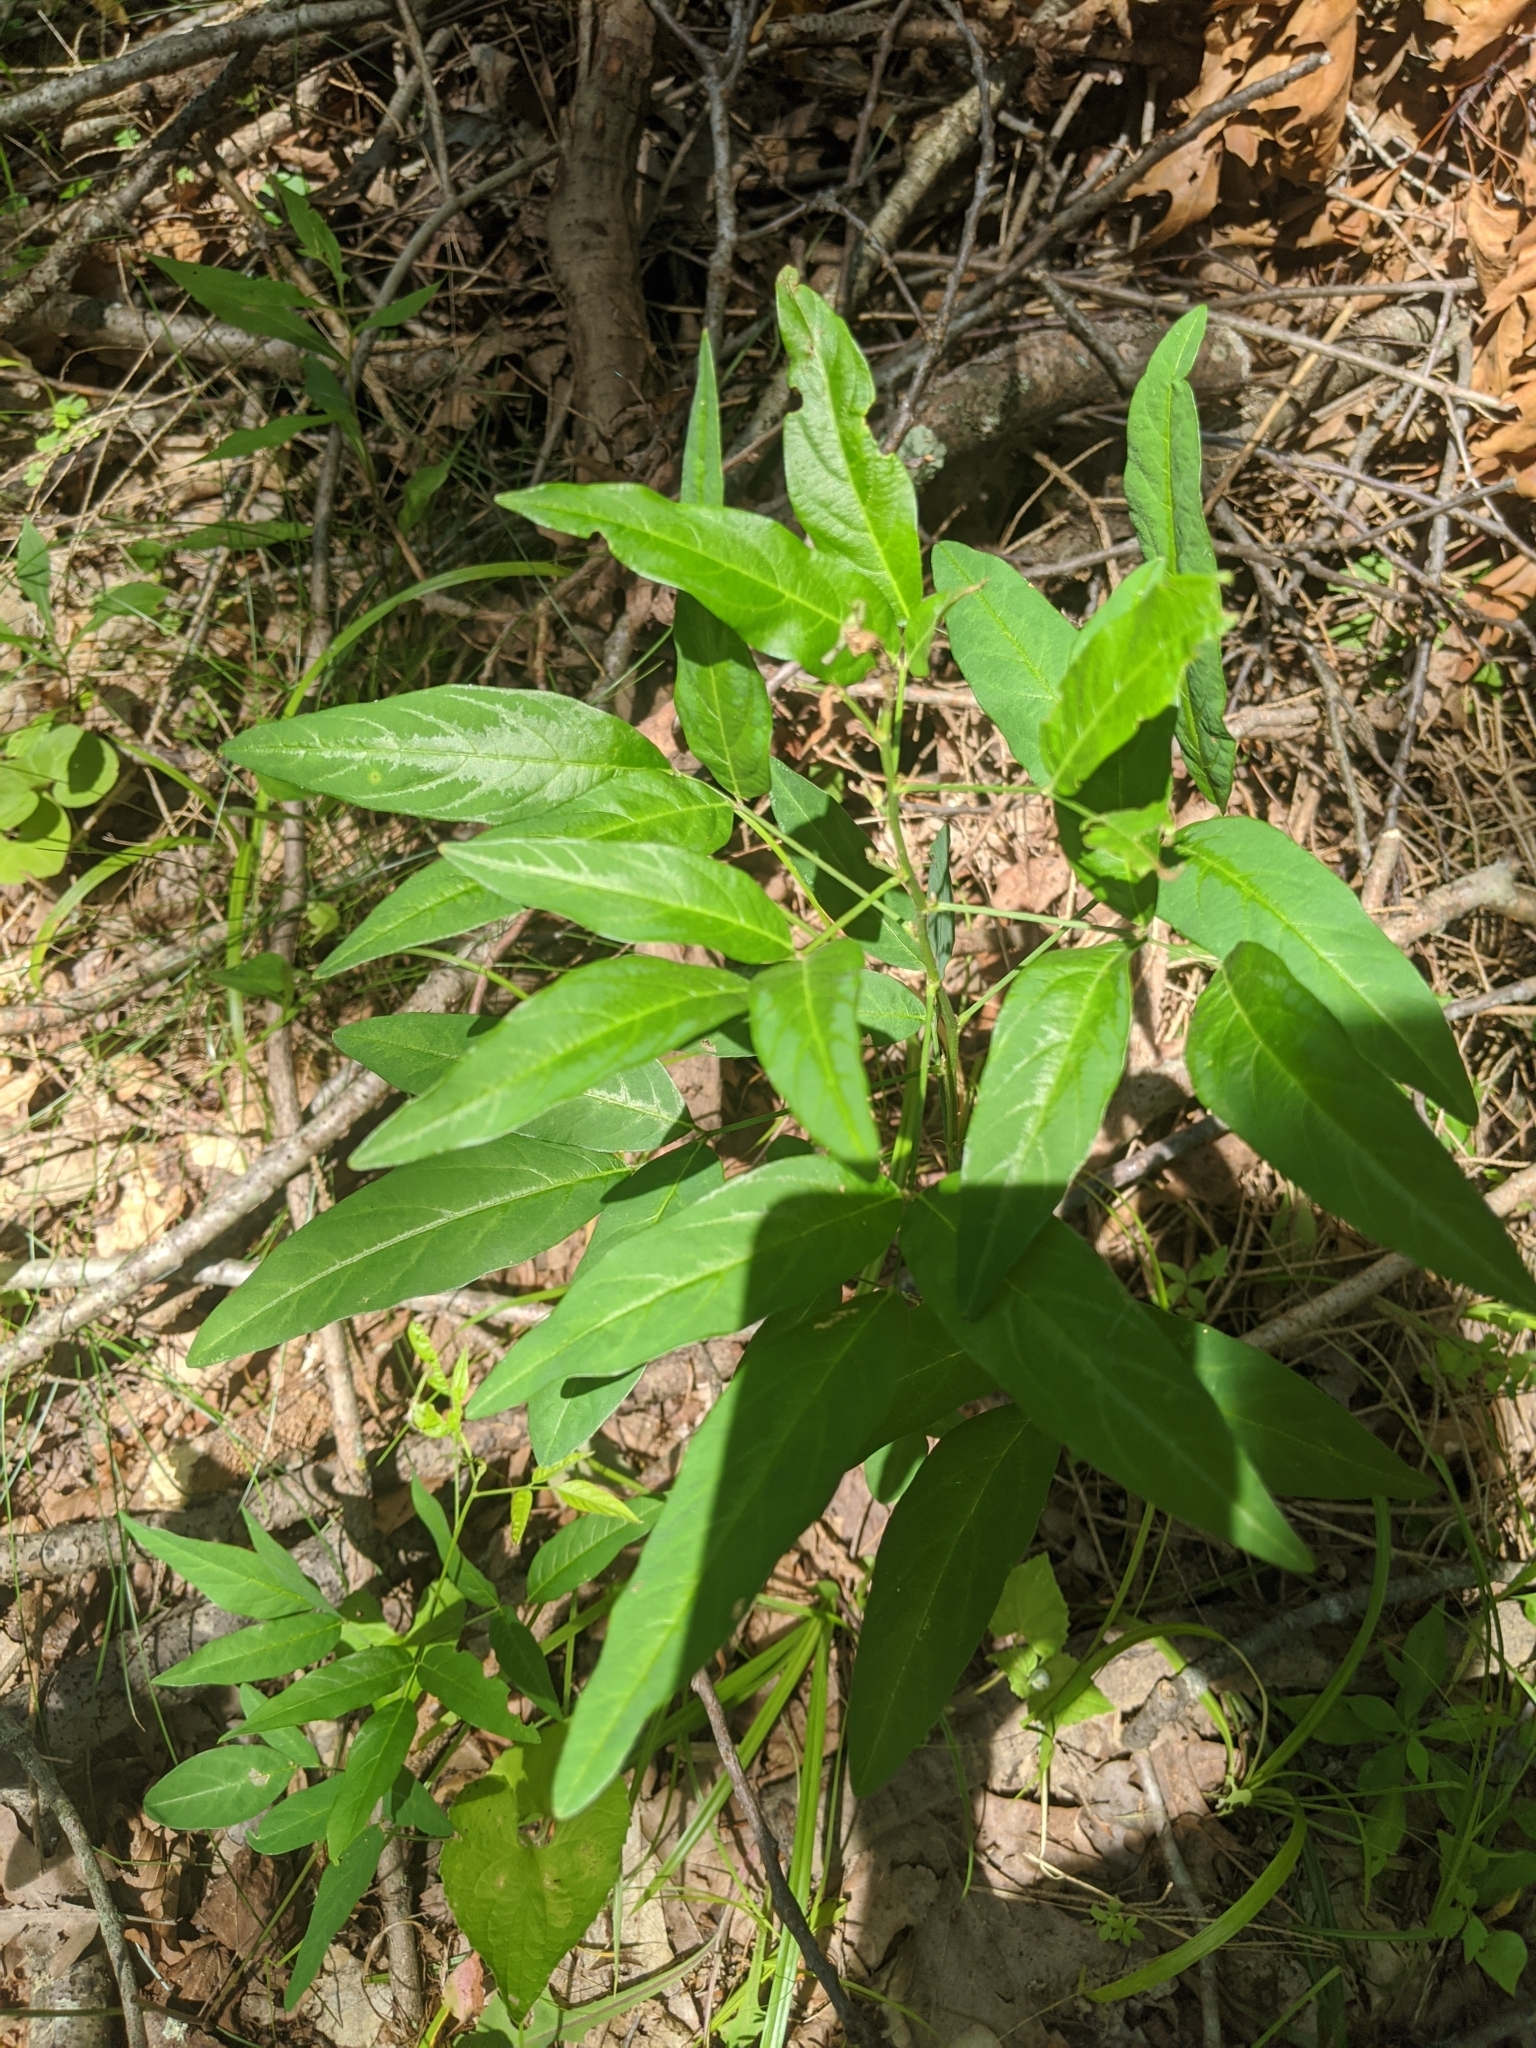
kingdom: Plantae
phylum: Tracheophyta
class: Magnoliopsida
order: Fabales
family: Fabaceae
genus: Desmodium
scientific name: Desmodium paniculatum
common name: Panicled tick-clover
